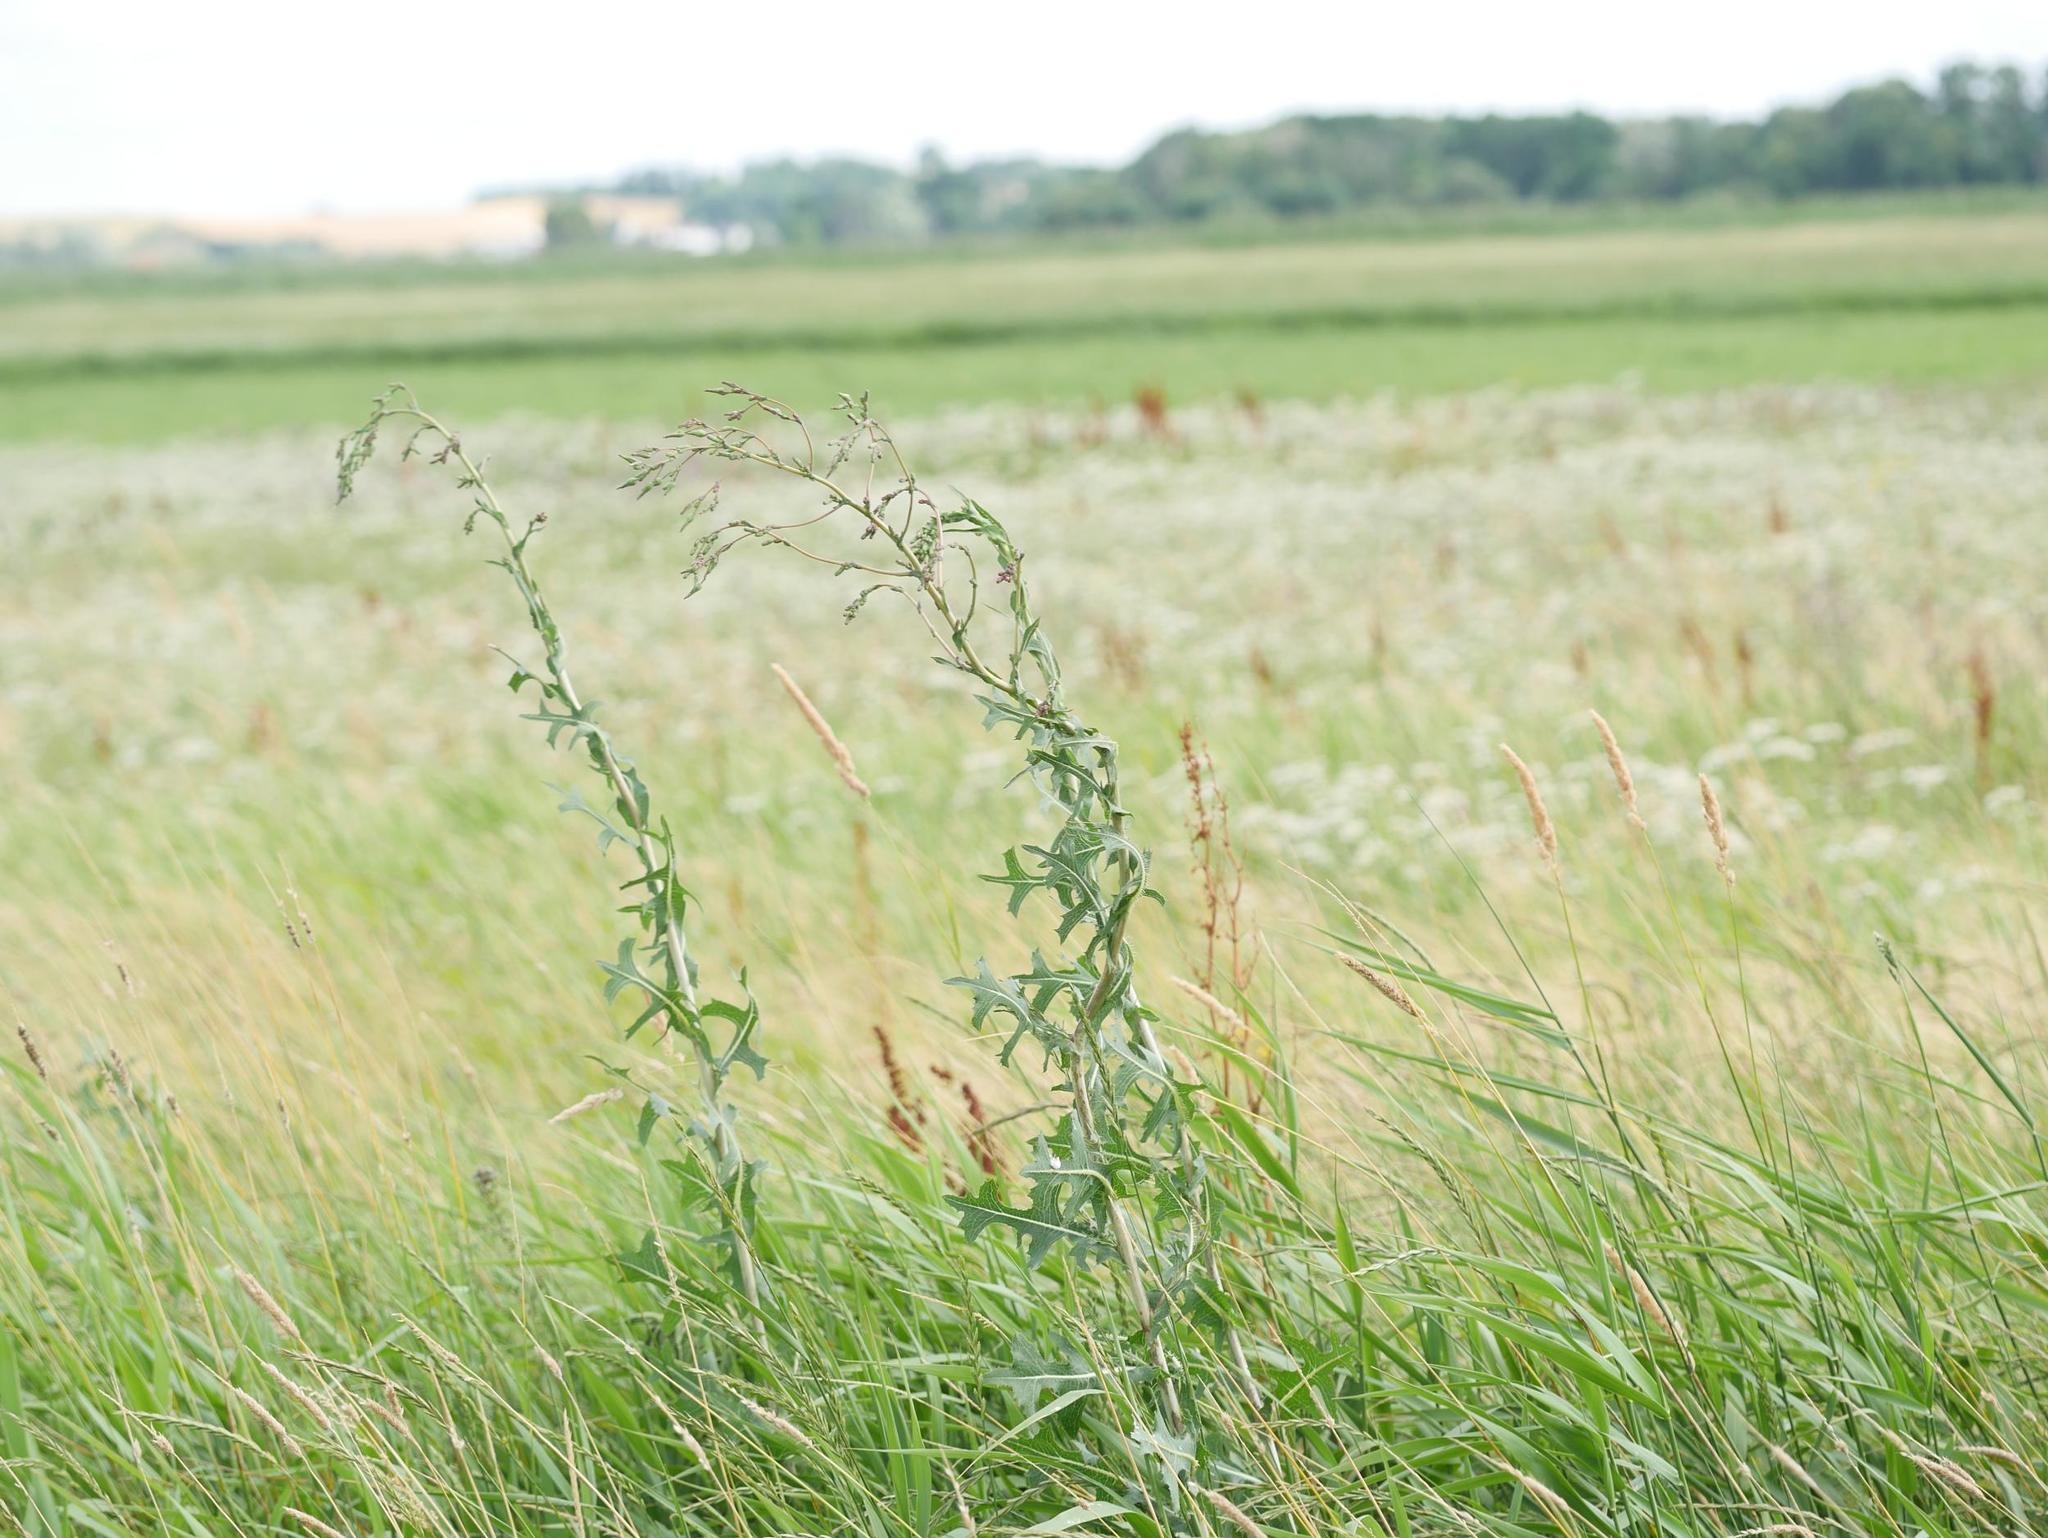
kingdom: Plantae
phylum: Tracheophyta
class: Magnoliopsida
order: Asterales
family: Asteraceae
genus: Lactuca
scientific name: Lactuca serriola
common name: Prickly lettuce
